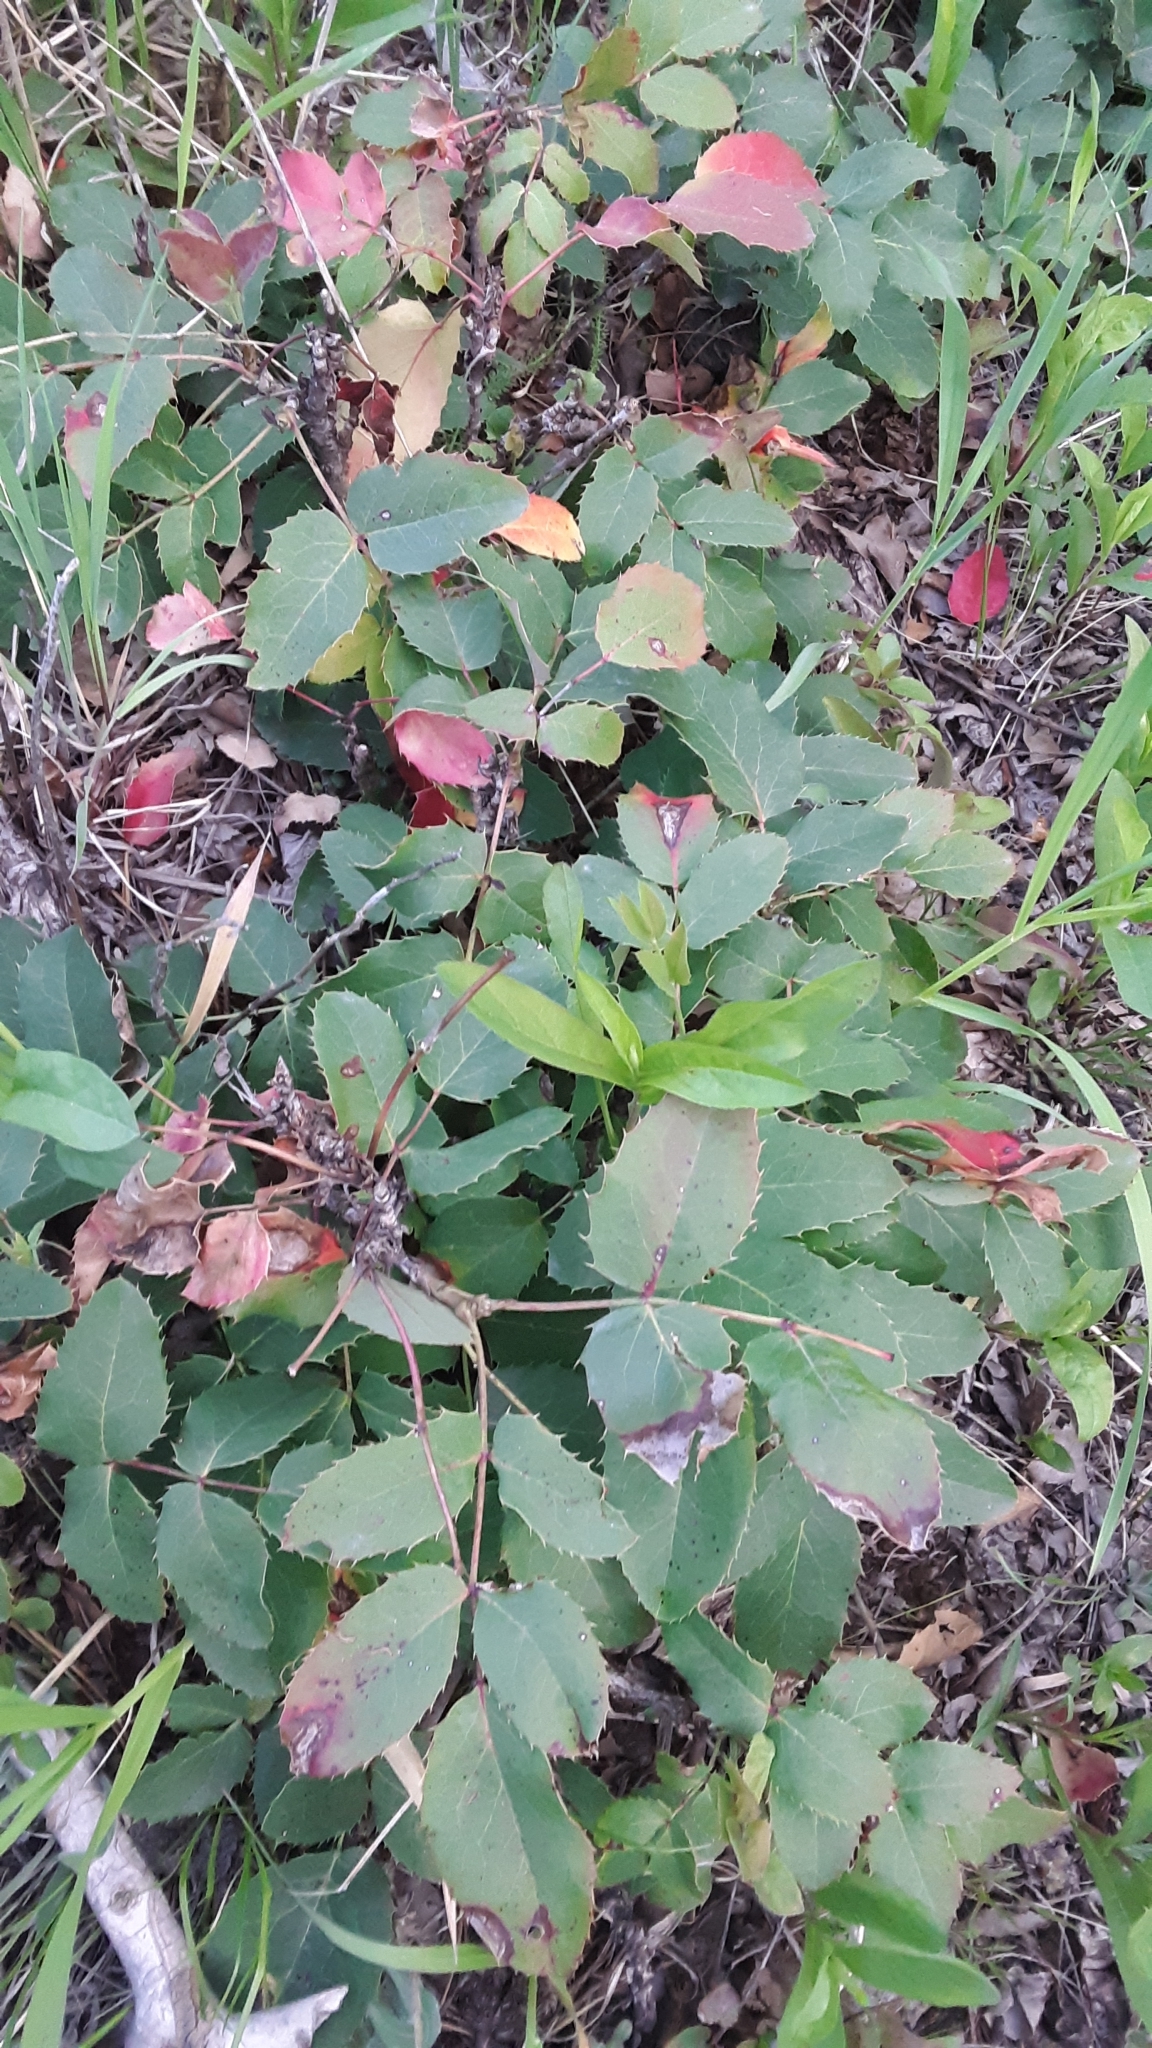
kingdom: Plantae
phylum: Tracheophyta
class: Magnoliopsida
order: Ranunculales
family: Berberidaceae
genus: Mahonia
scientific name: Mahonia repens
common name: Creeping oregon-grape
